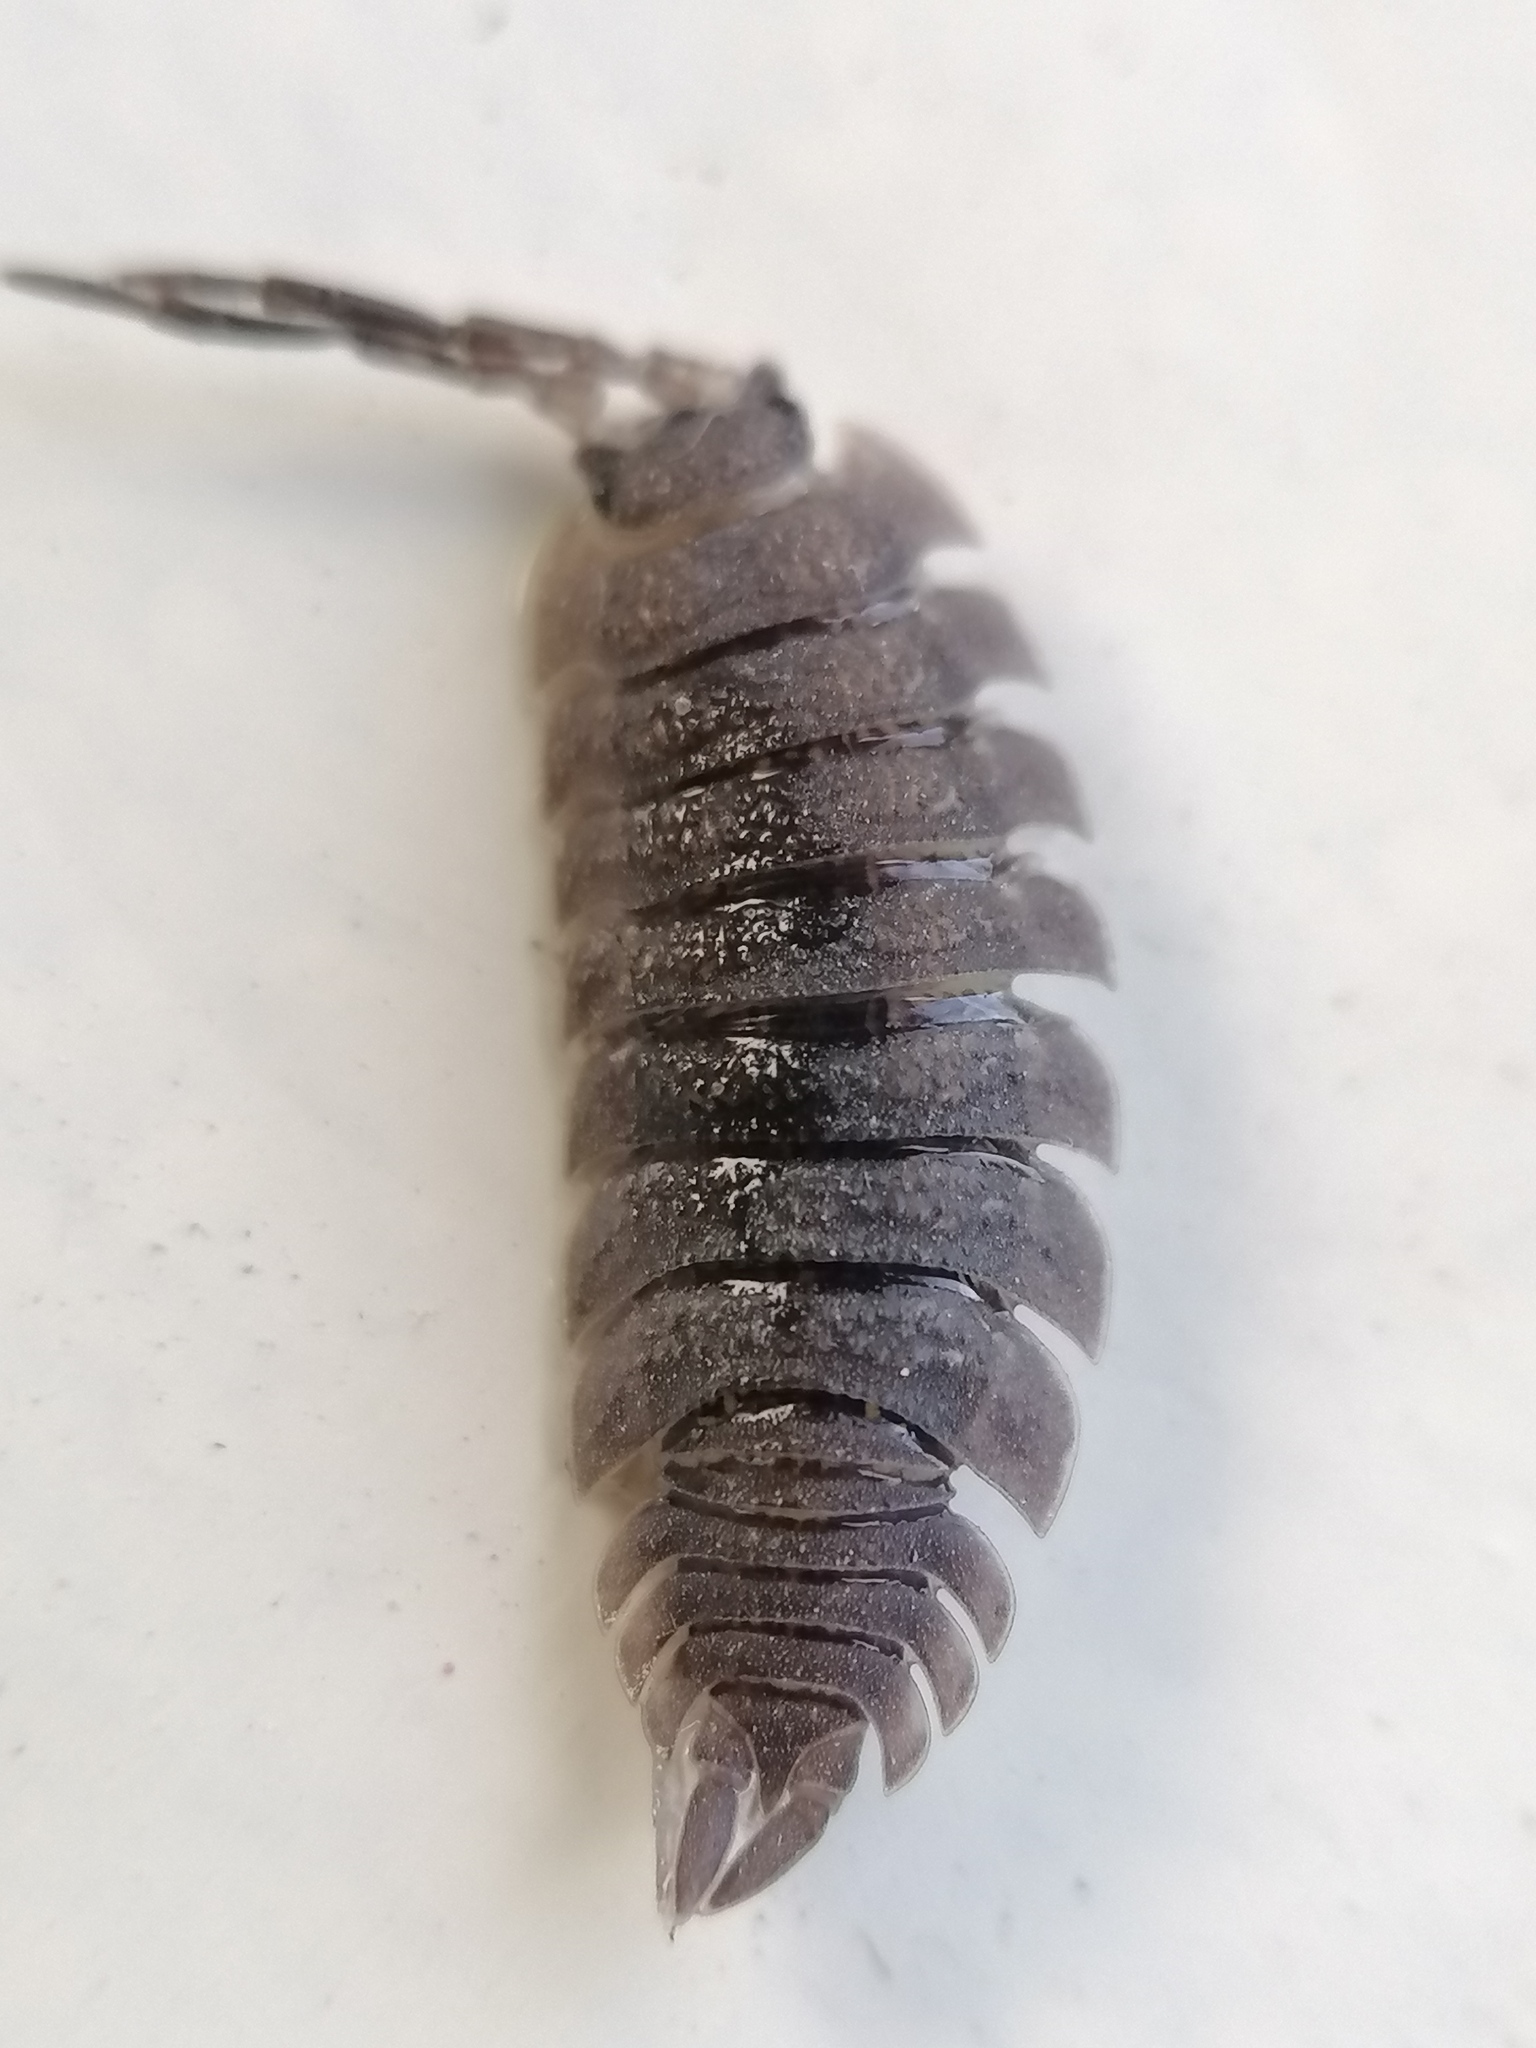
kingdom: Animalia
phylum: Arthropoda
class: Malacostraca
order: Isopoda
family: Porcellionidae
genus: Porcellio
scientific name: Porcellio scaber
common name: Common rough woodlouse
